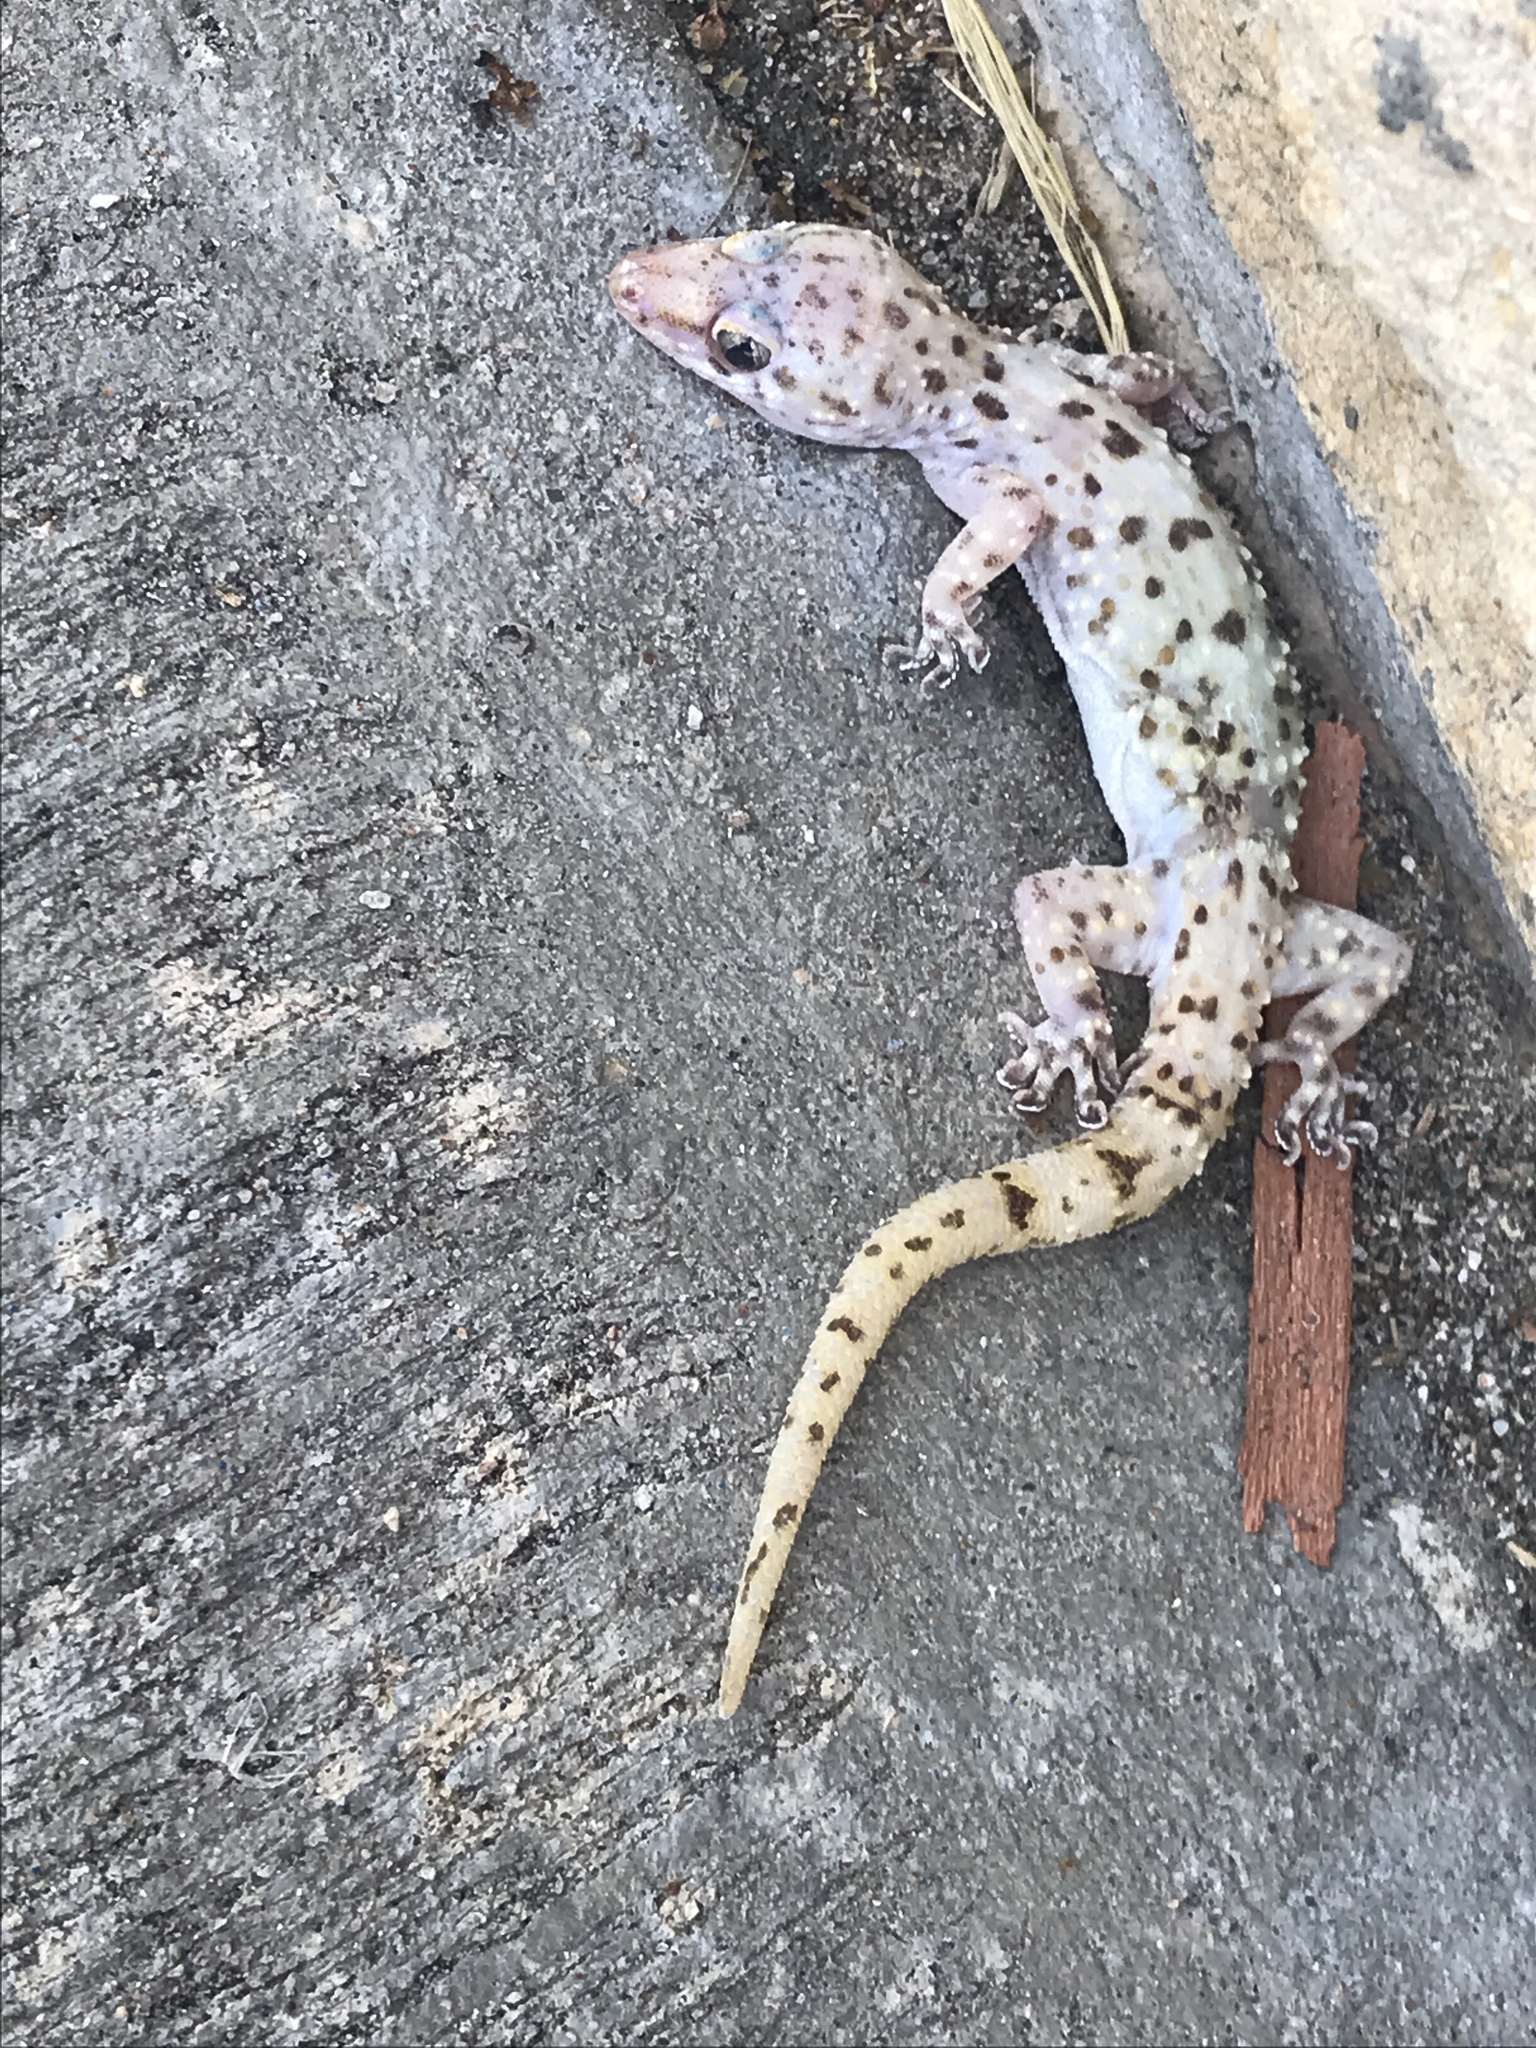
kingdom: Animalia
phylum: Chordata
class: Squamata
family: Gekkonidae
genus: Hemidactylus
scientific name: Hemidactylus turcicus
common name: Turkish gecko
